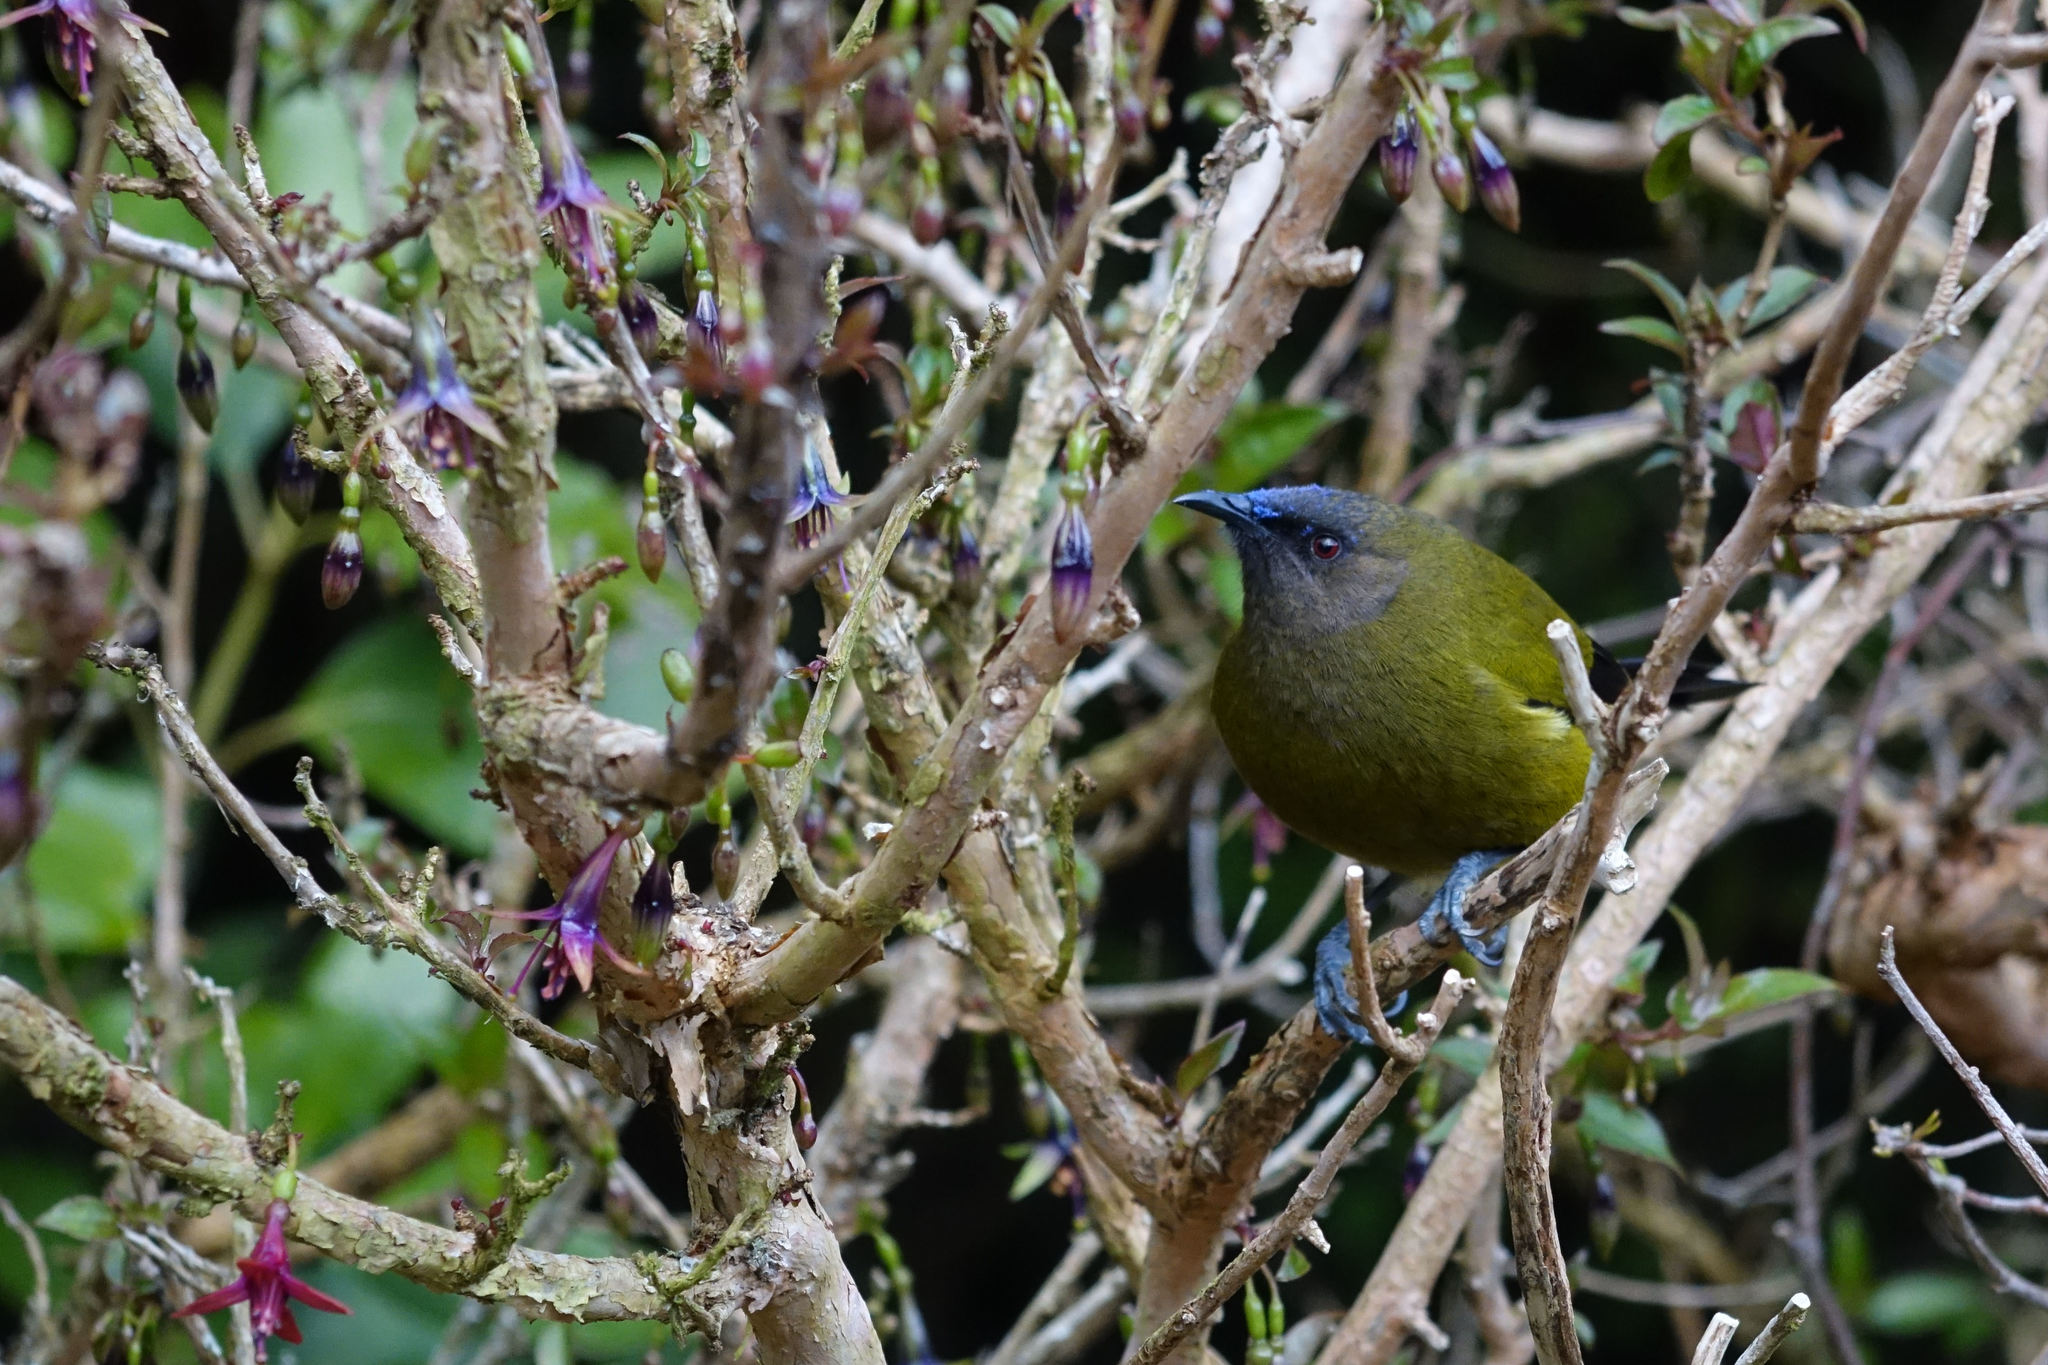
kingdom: Animalia
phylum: Chordata
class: Aves
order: Passeriformes
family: Meliphagidae
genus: Anthornis
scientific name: Anthornis melanura
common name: New zealand bellbird
